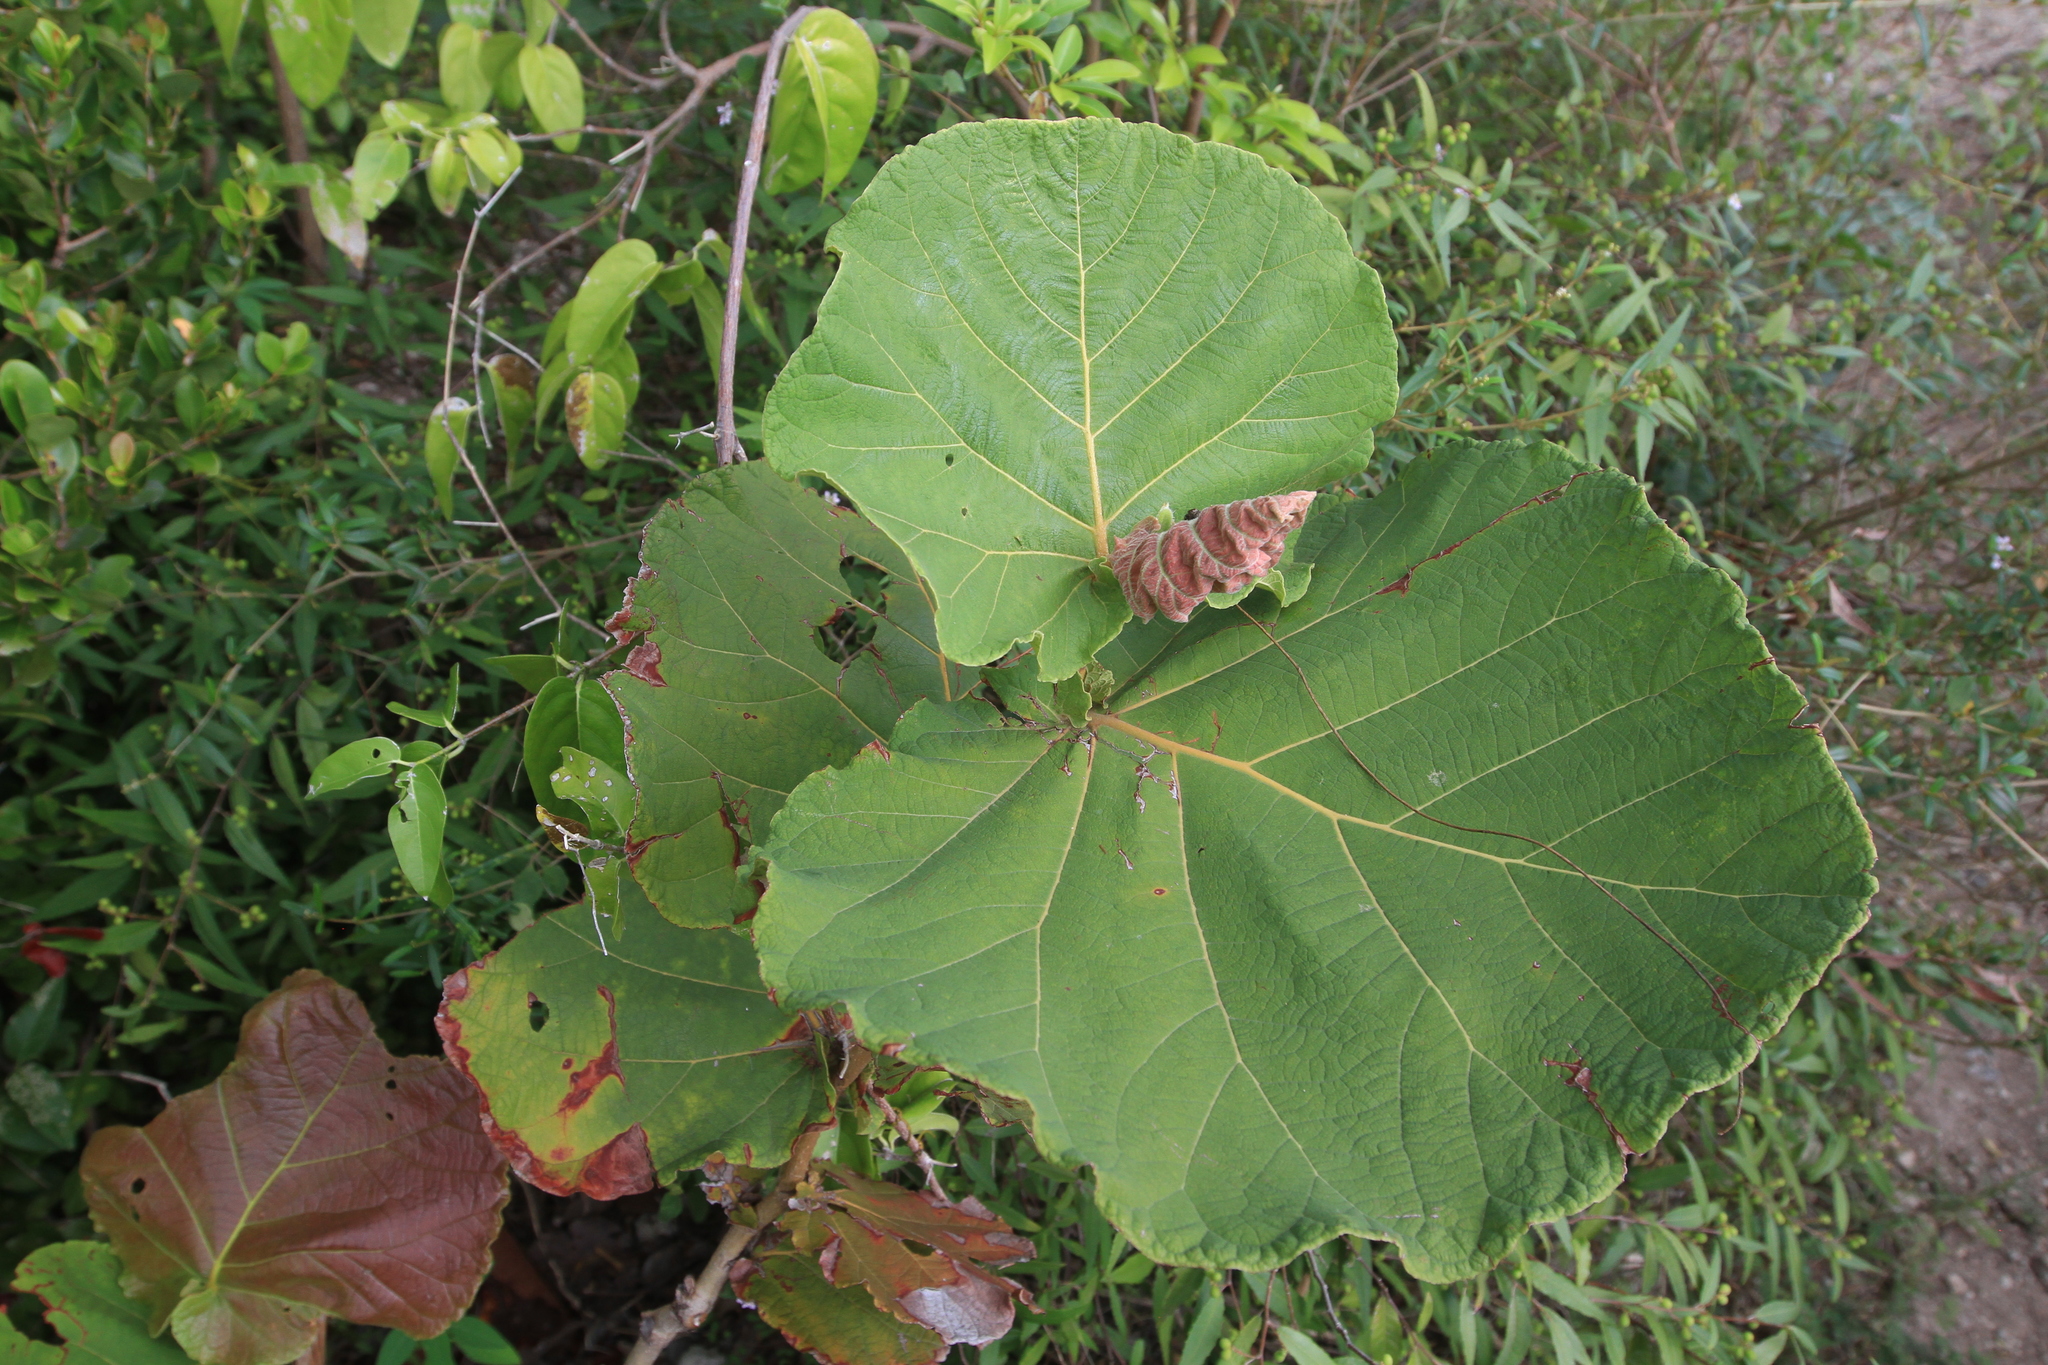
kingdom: Plantae
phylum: Tracheophyta
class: Magnoliopsida
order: Caryophyllales
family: Polygonaceae
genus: Coccoloba
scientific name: Coccoloba pubescens
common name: Mountain-grape
